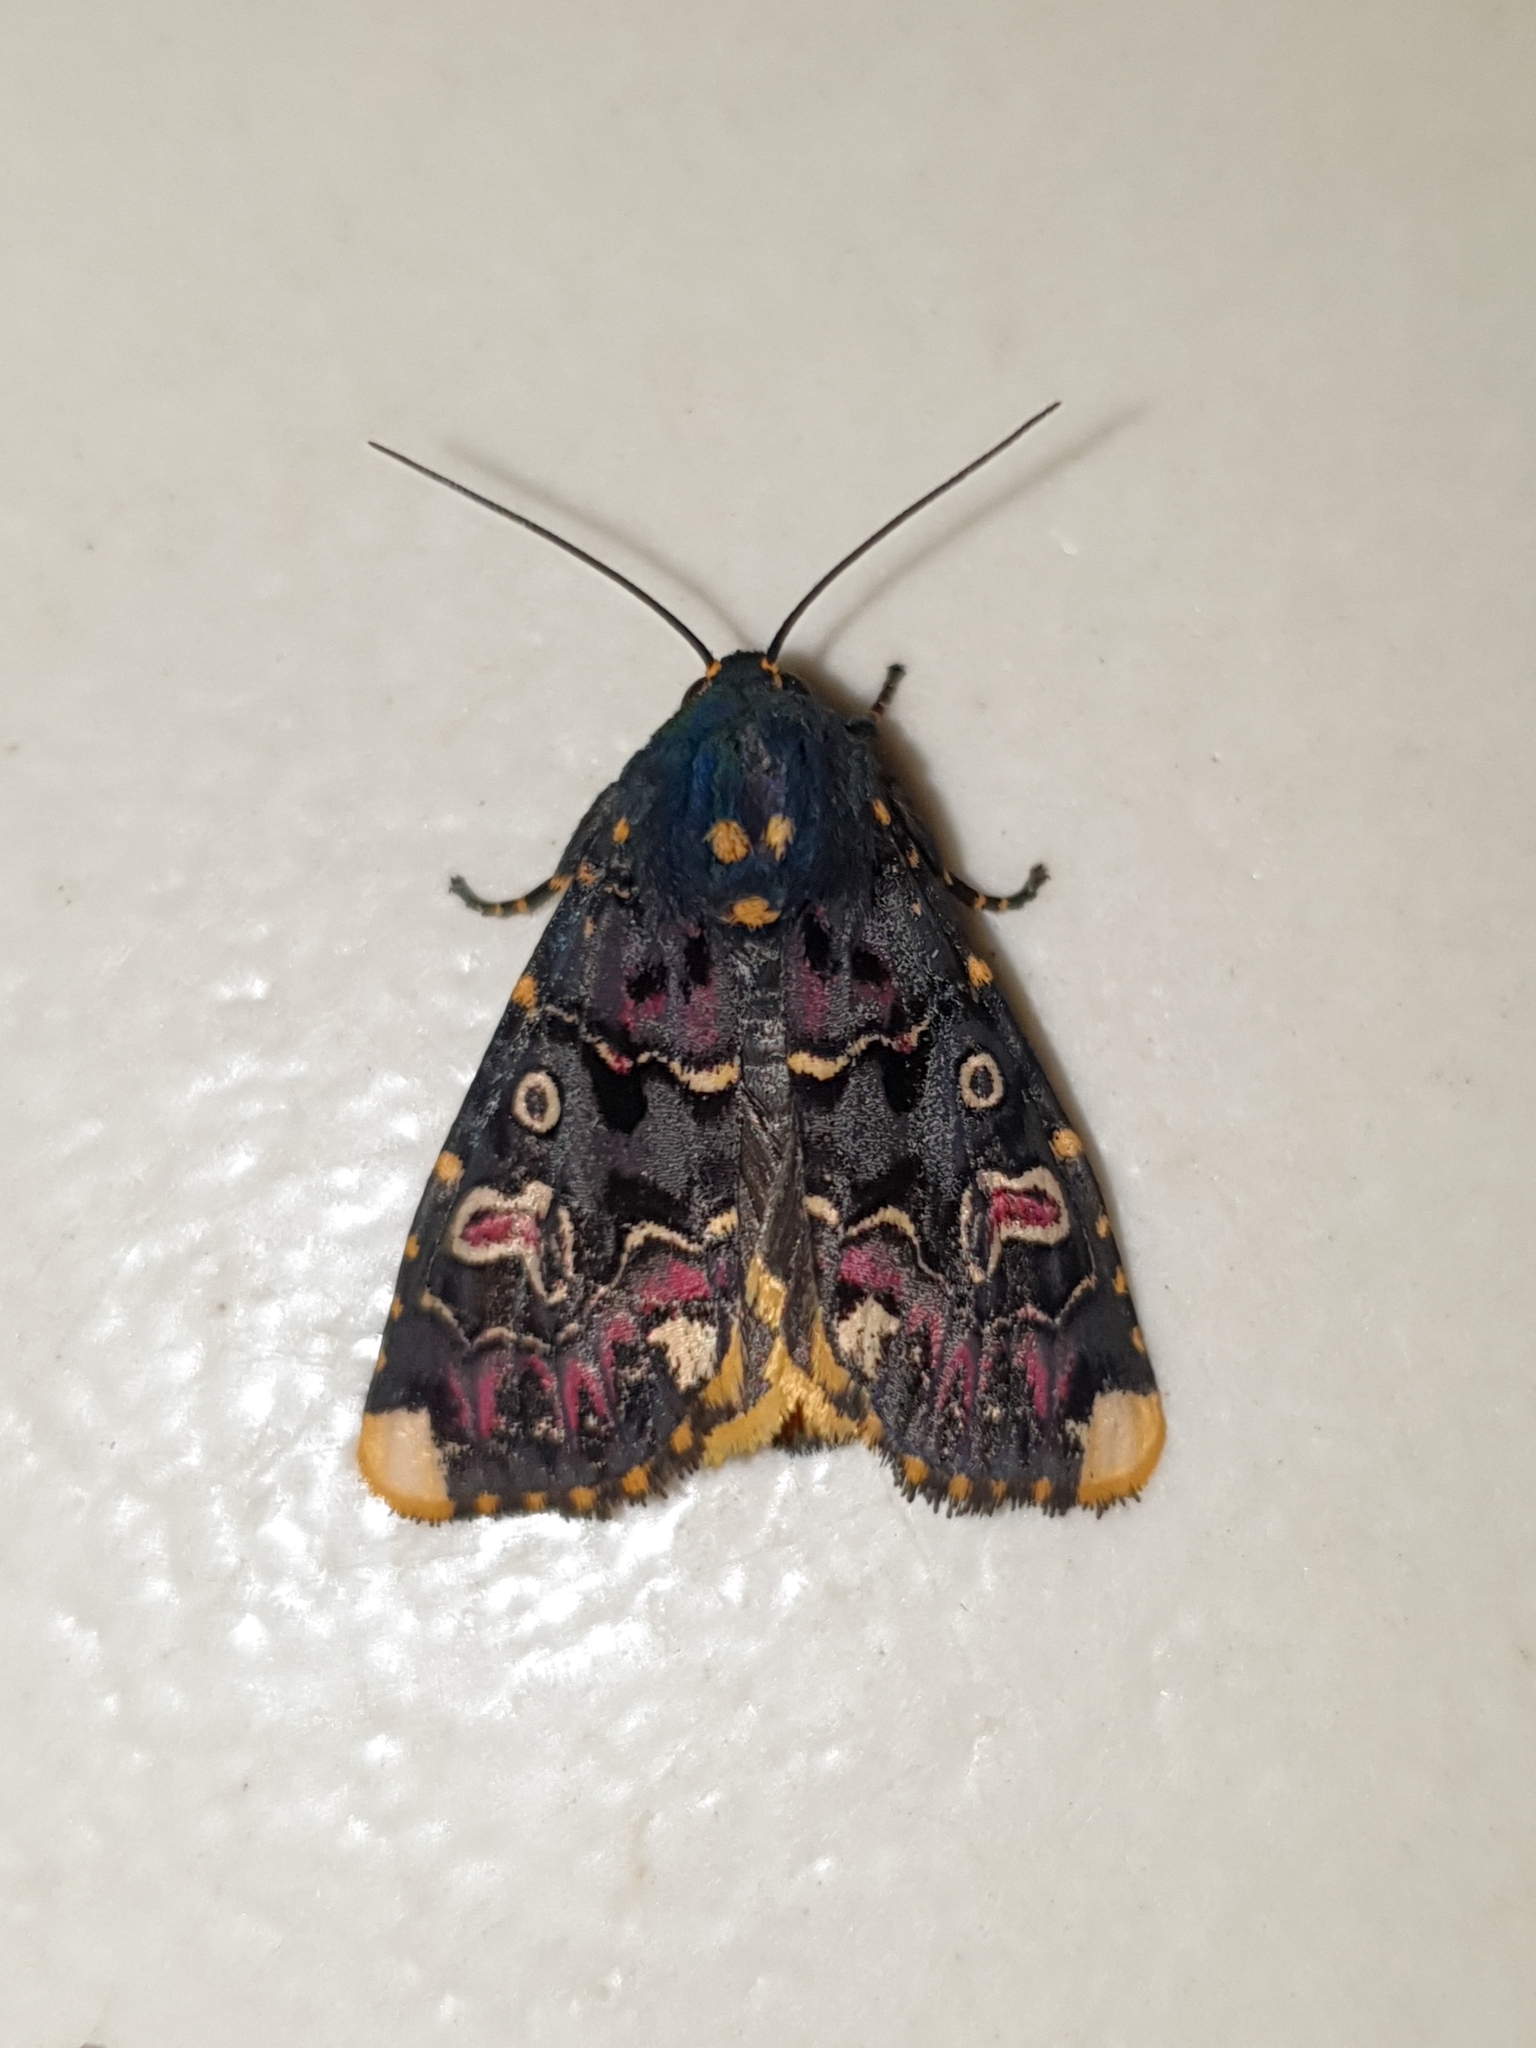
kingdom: Animalia
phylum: Arthropoda
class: Insecta
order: Lepidoptera
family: Noctuidae
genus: Polytela
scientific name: Polytela gloriosae
